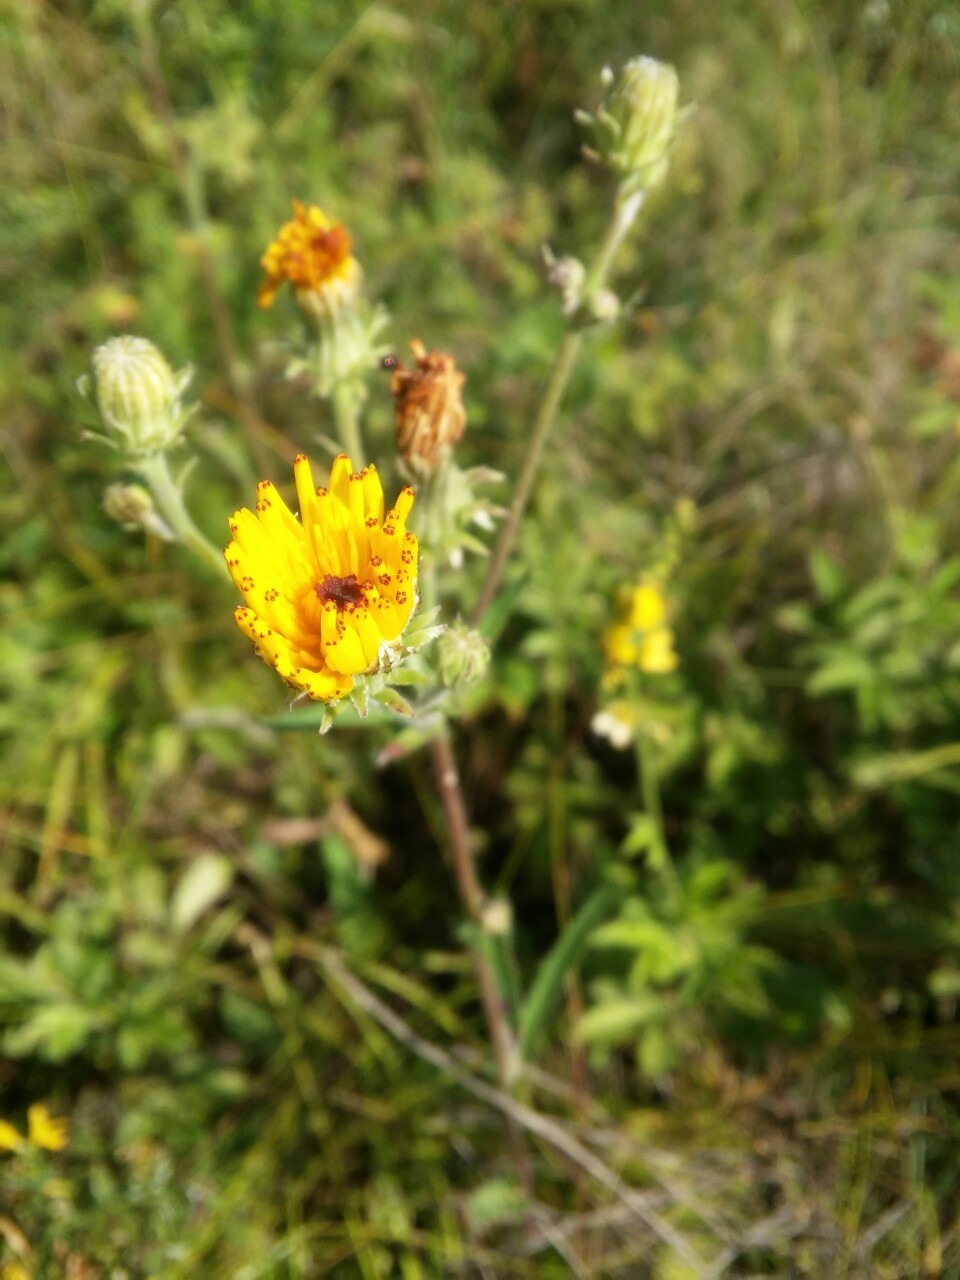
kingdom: Plantae
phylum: Tracheophyta
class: Magnoliopsida
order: Asterales
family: Asteraceae
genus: Picris
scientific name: Picris hieracioides
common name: Hawkweed oxtongue
